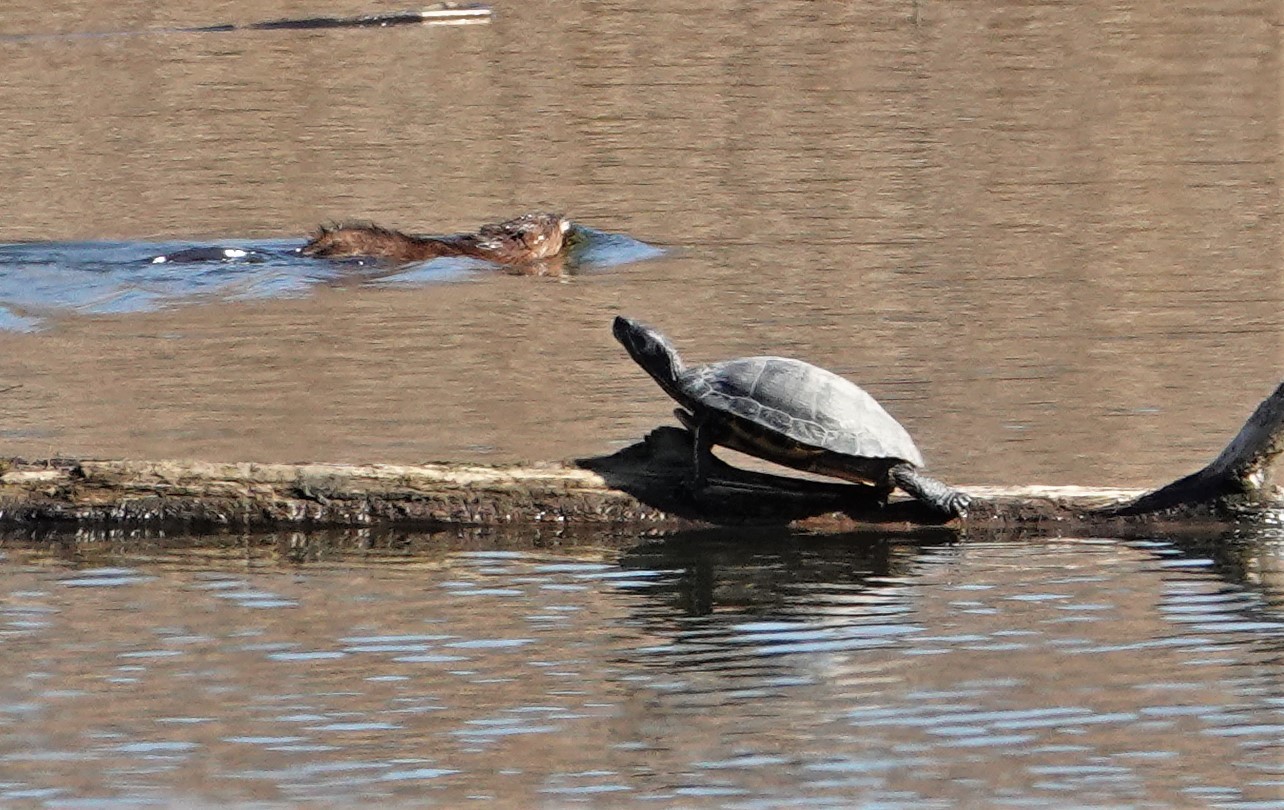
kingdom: Animalia
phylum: Chordata
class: Testudines
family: Emydidae
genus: Trachemys
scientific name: Trachemys scripta
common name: Slider
